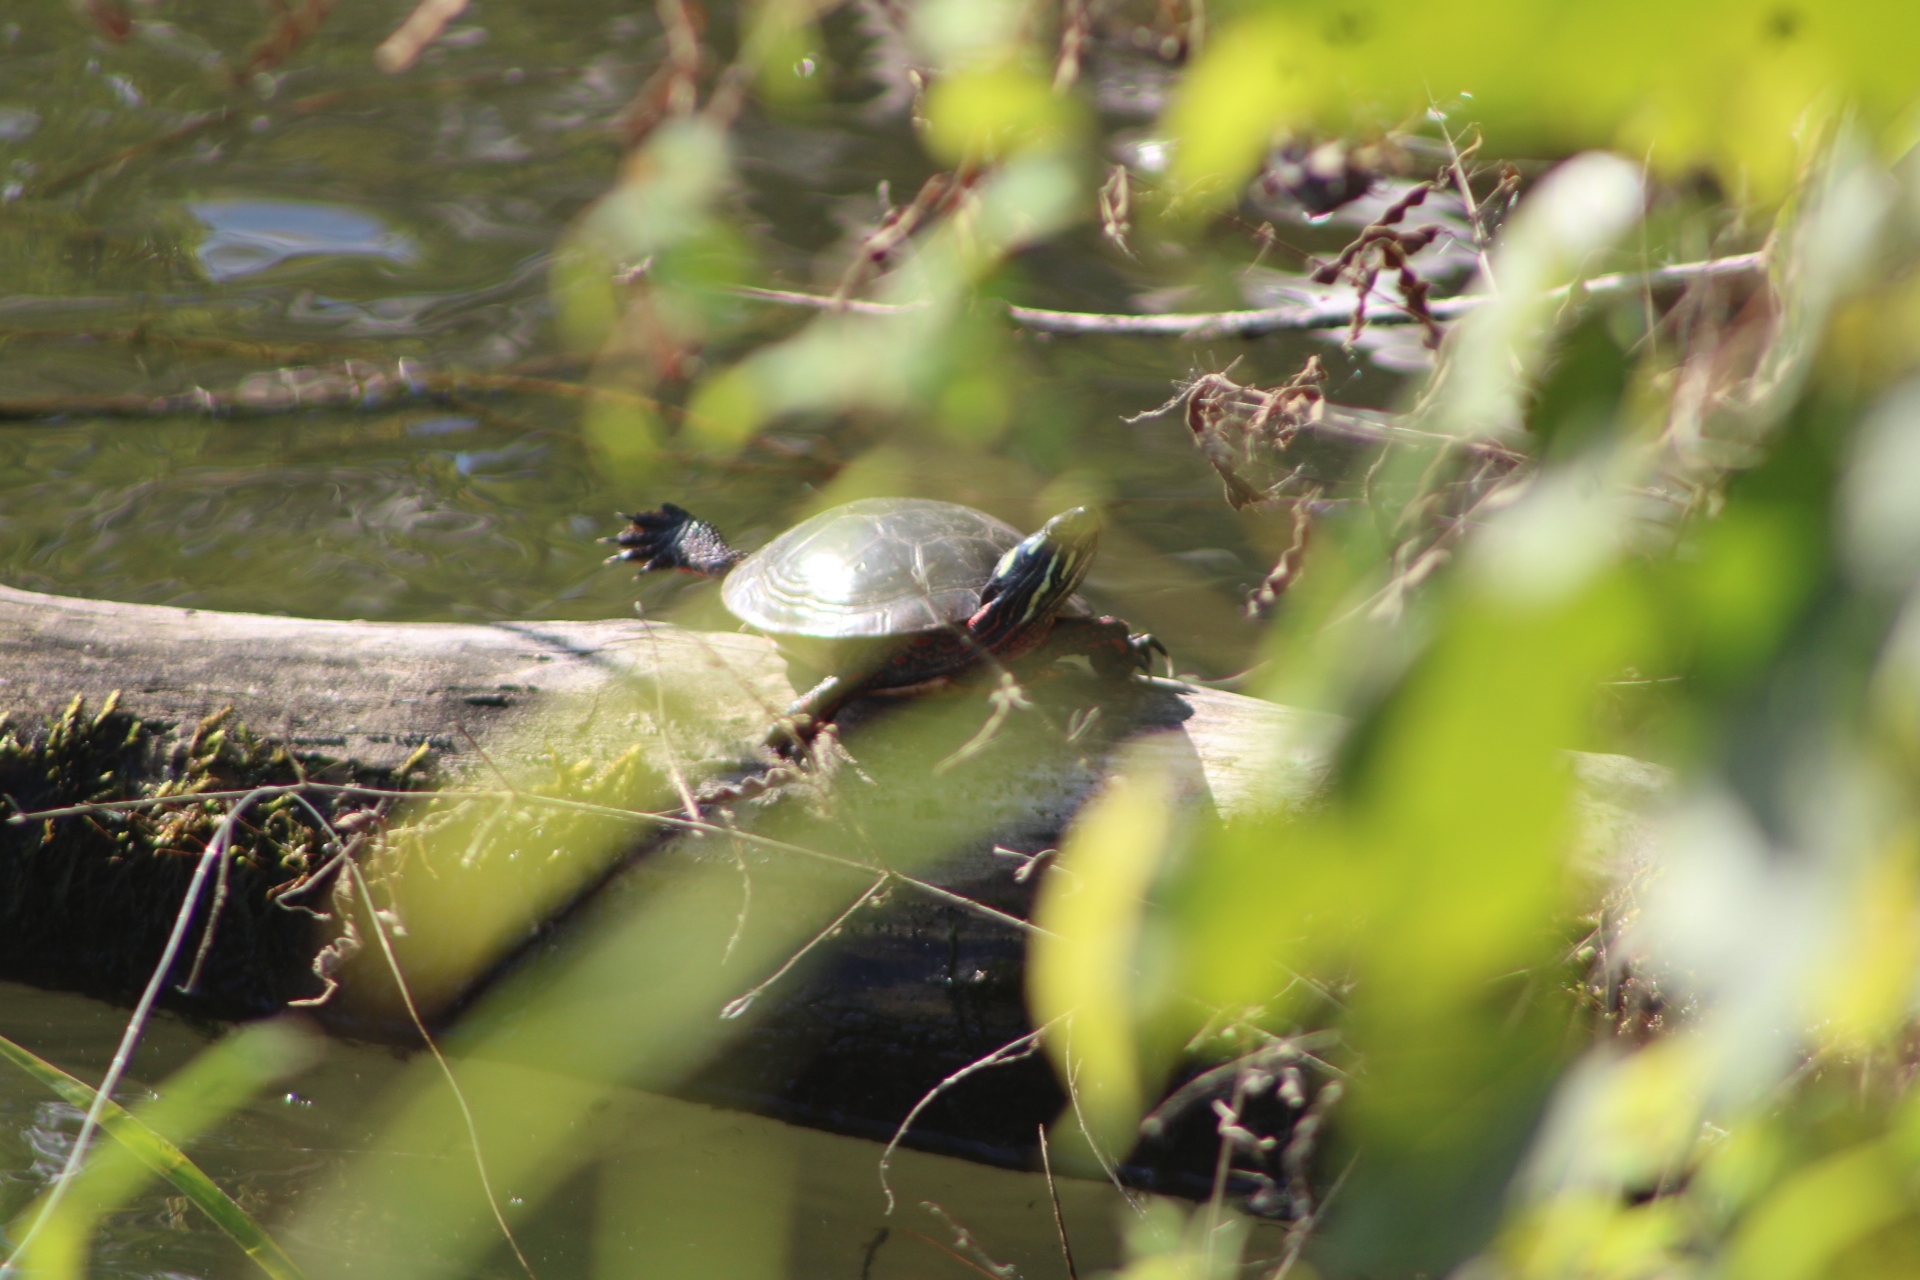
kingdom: Animalia
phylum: Chordata
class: Testudines
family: Emydidae
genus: Chrysemys
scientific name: Chrysemys picta
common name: Painted turtle
